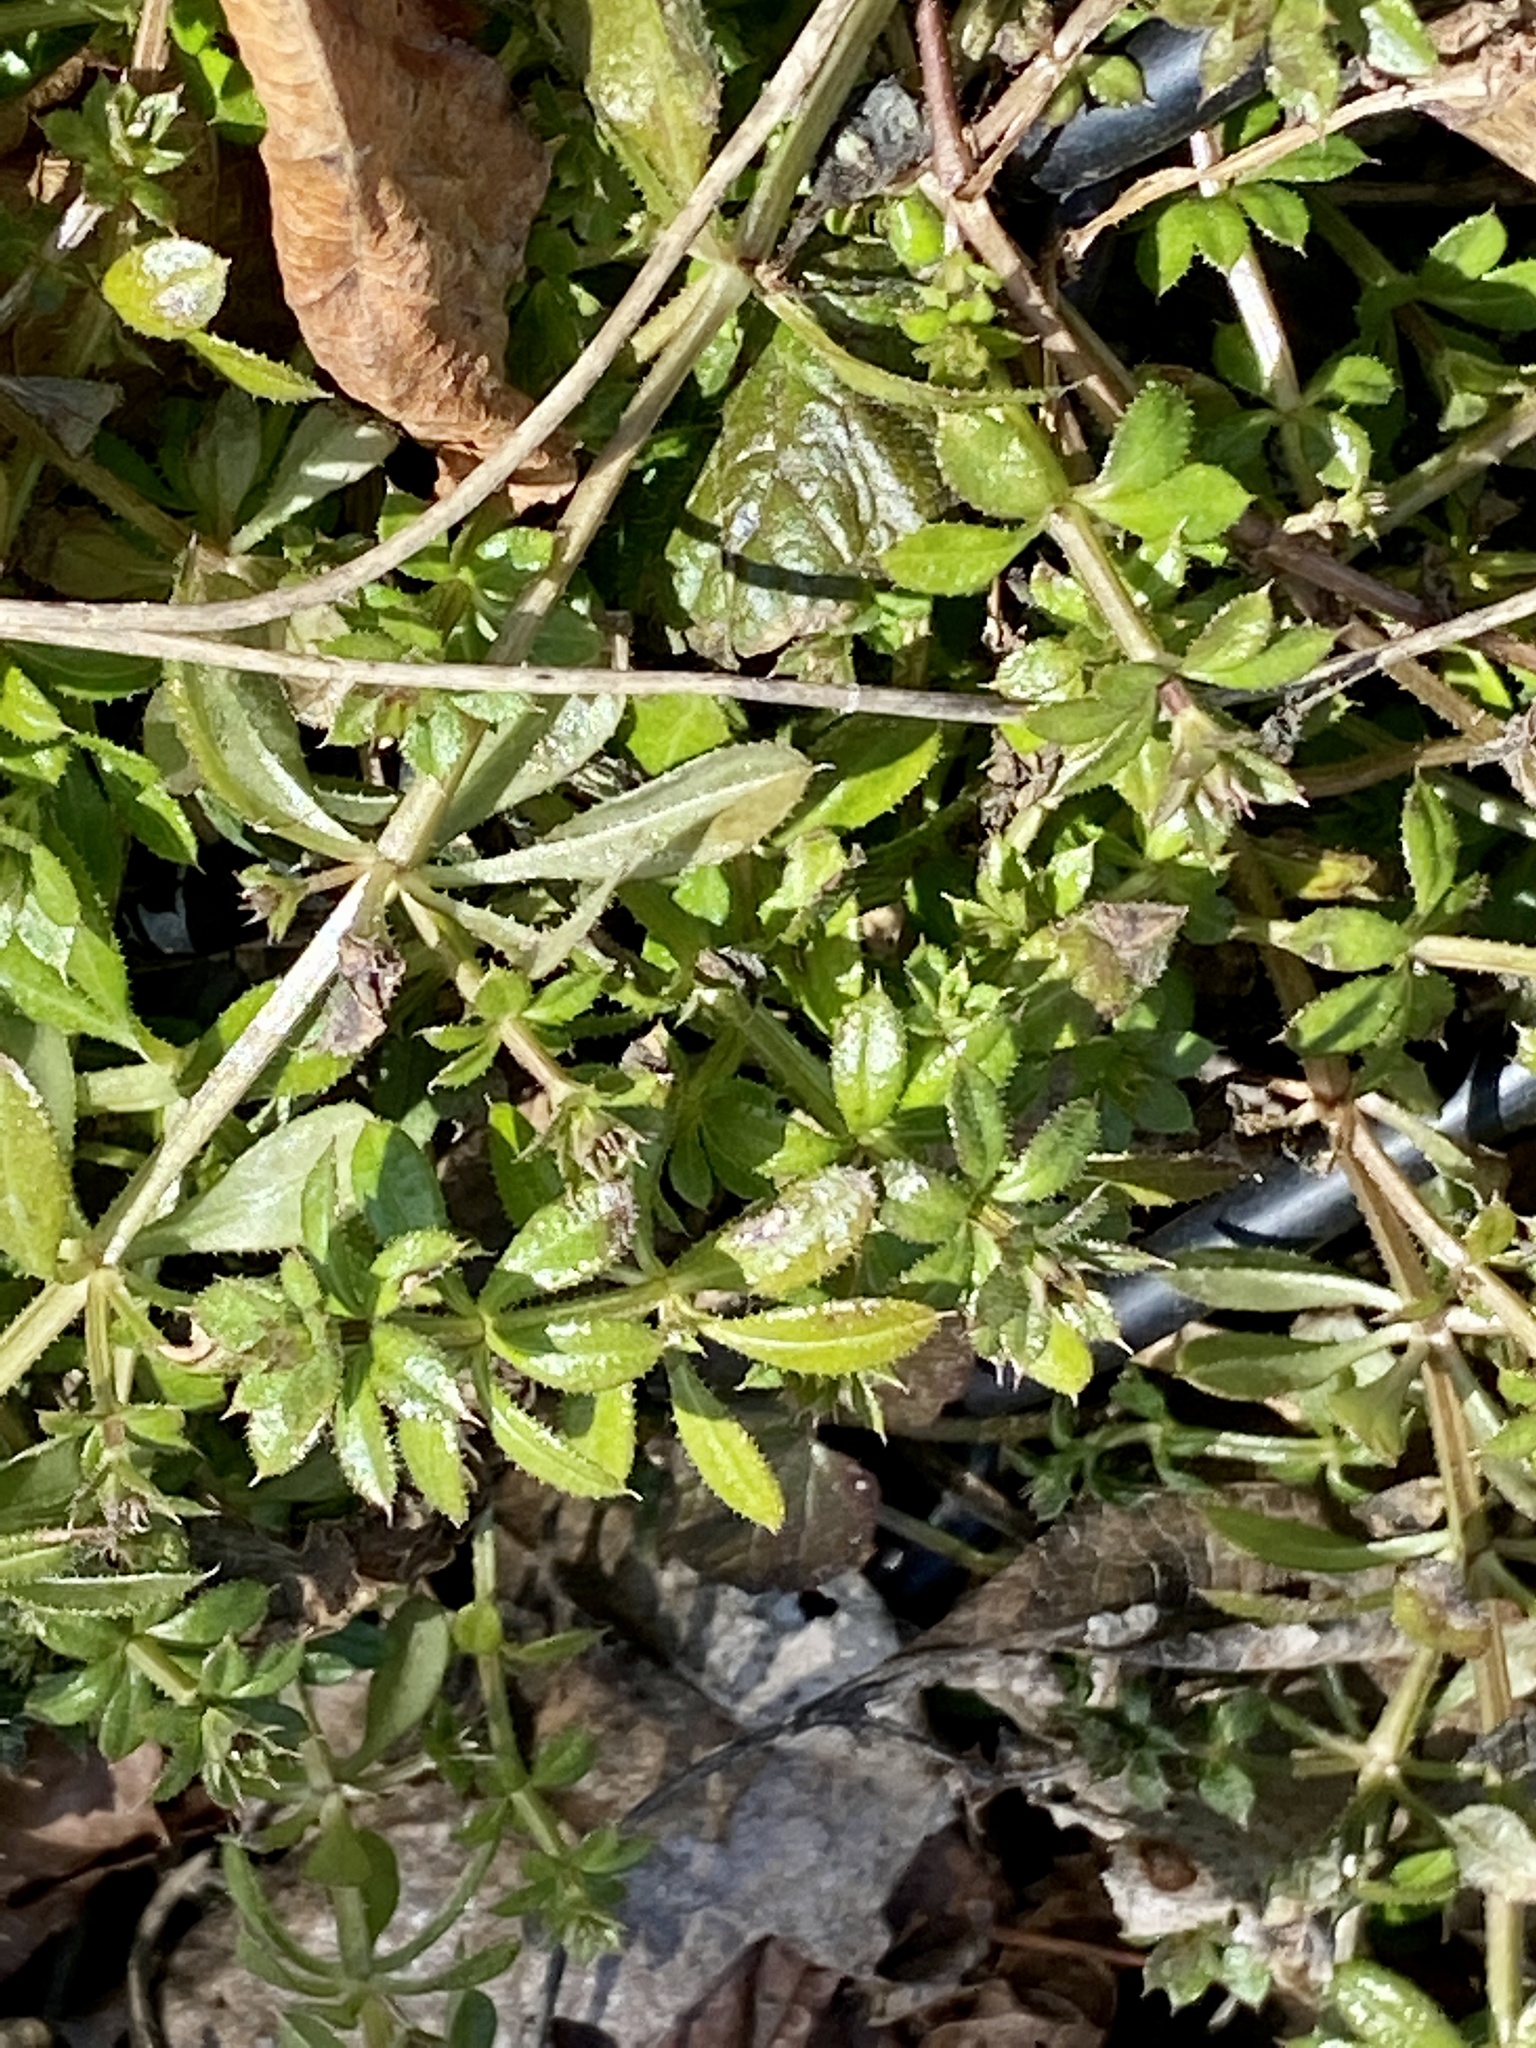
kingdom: Plantae
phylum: Tracheophyta
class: Magnoliopsida
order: Gentianales
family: Rubiaceae
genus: Galium
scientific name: Galium aparine
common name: Cleavers
